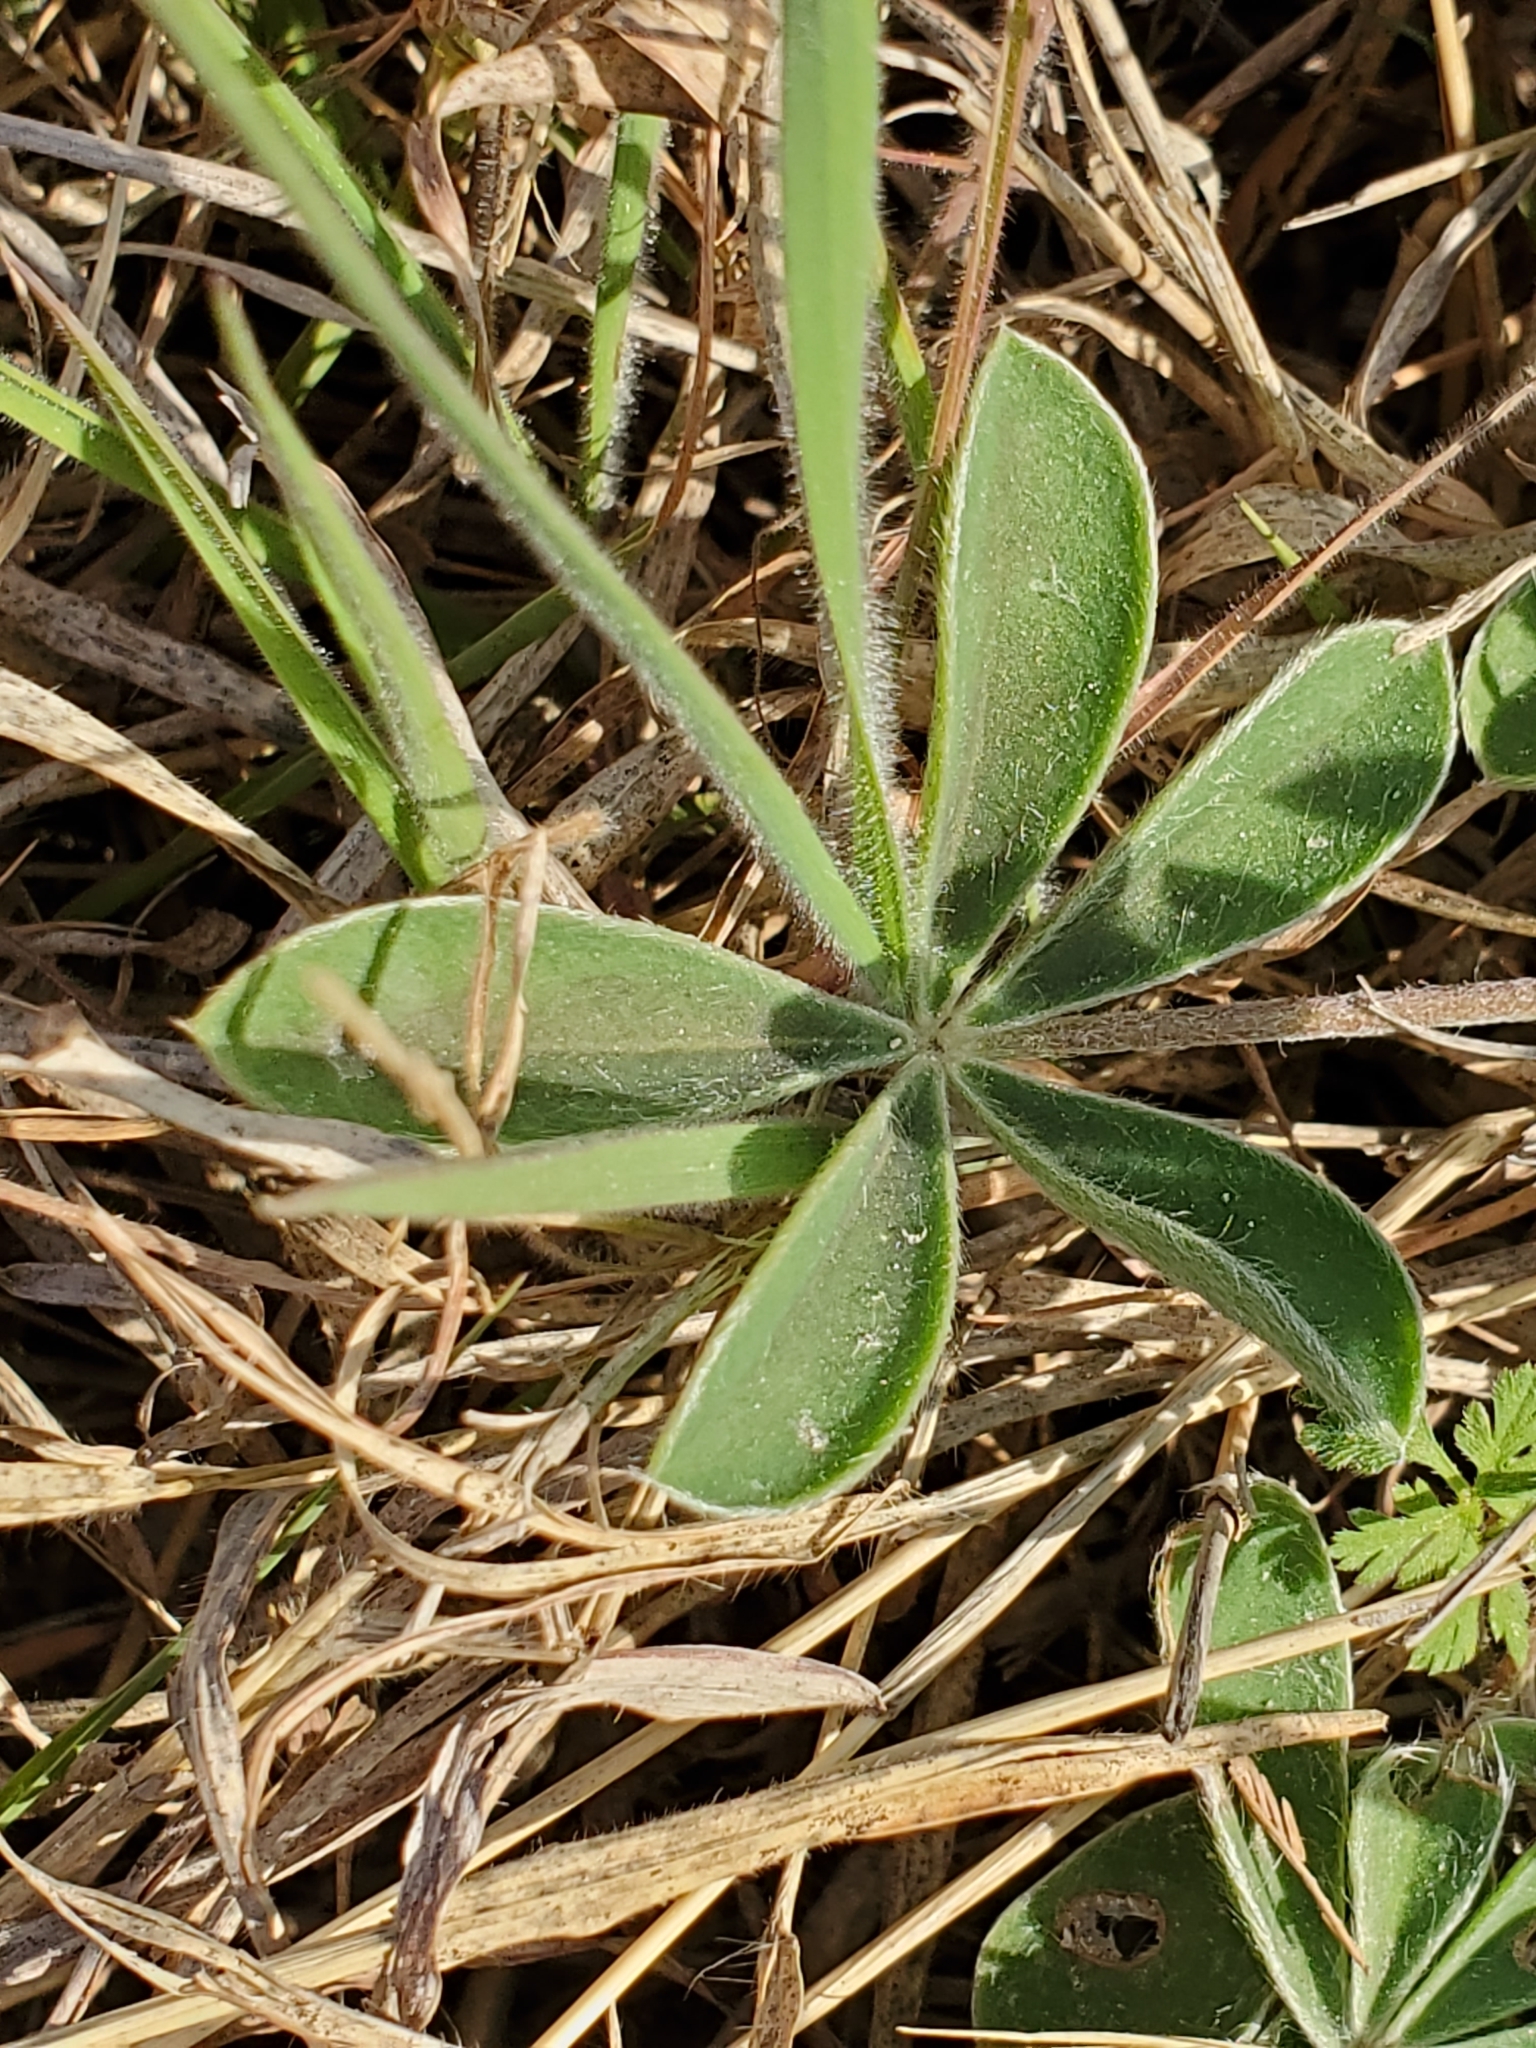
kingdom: Plantae
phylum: Tracheophyta
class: Magnoliopsida
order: Fabales
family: Fabaceae
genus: Lupinus
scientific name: Lupinus texensis
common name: Texas bluebonnet
